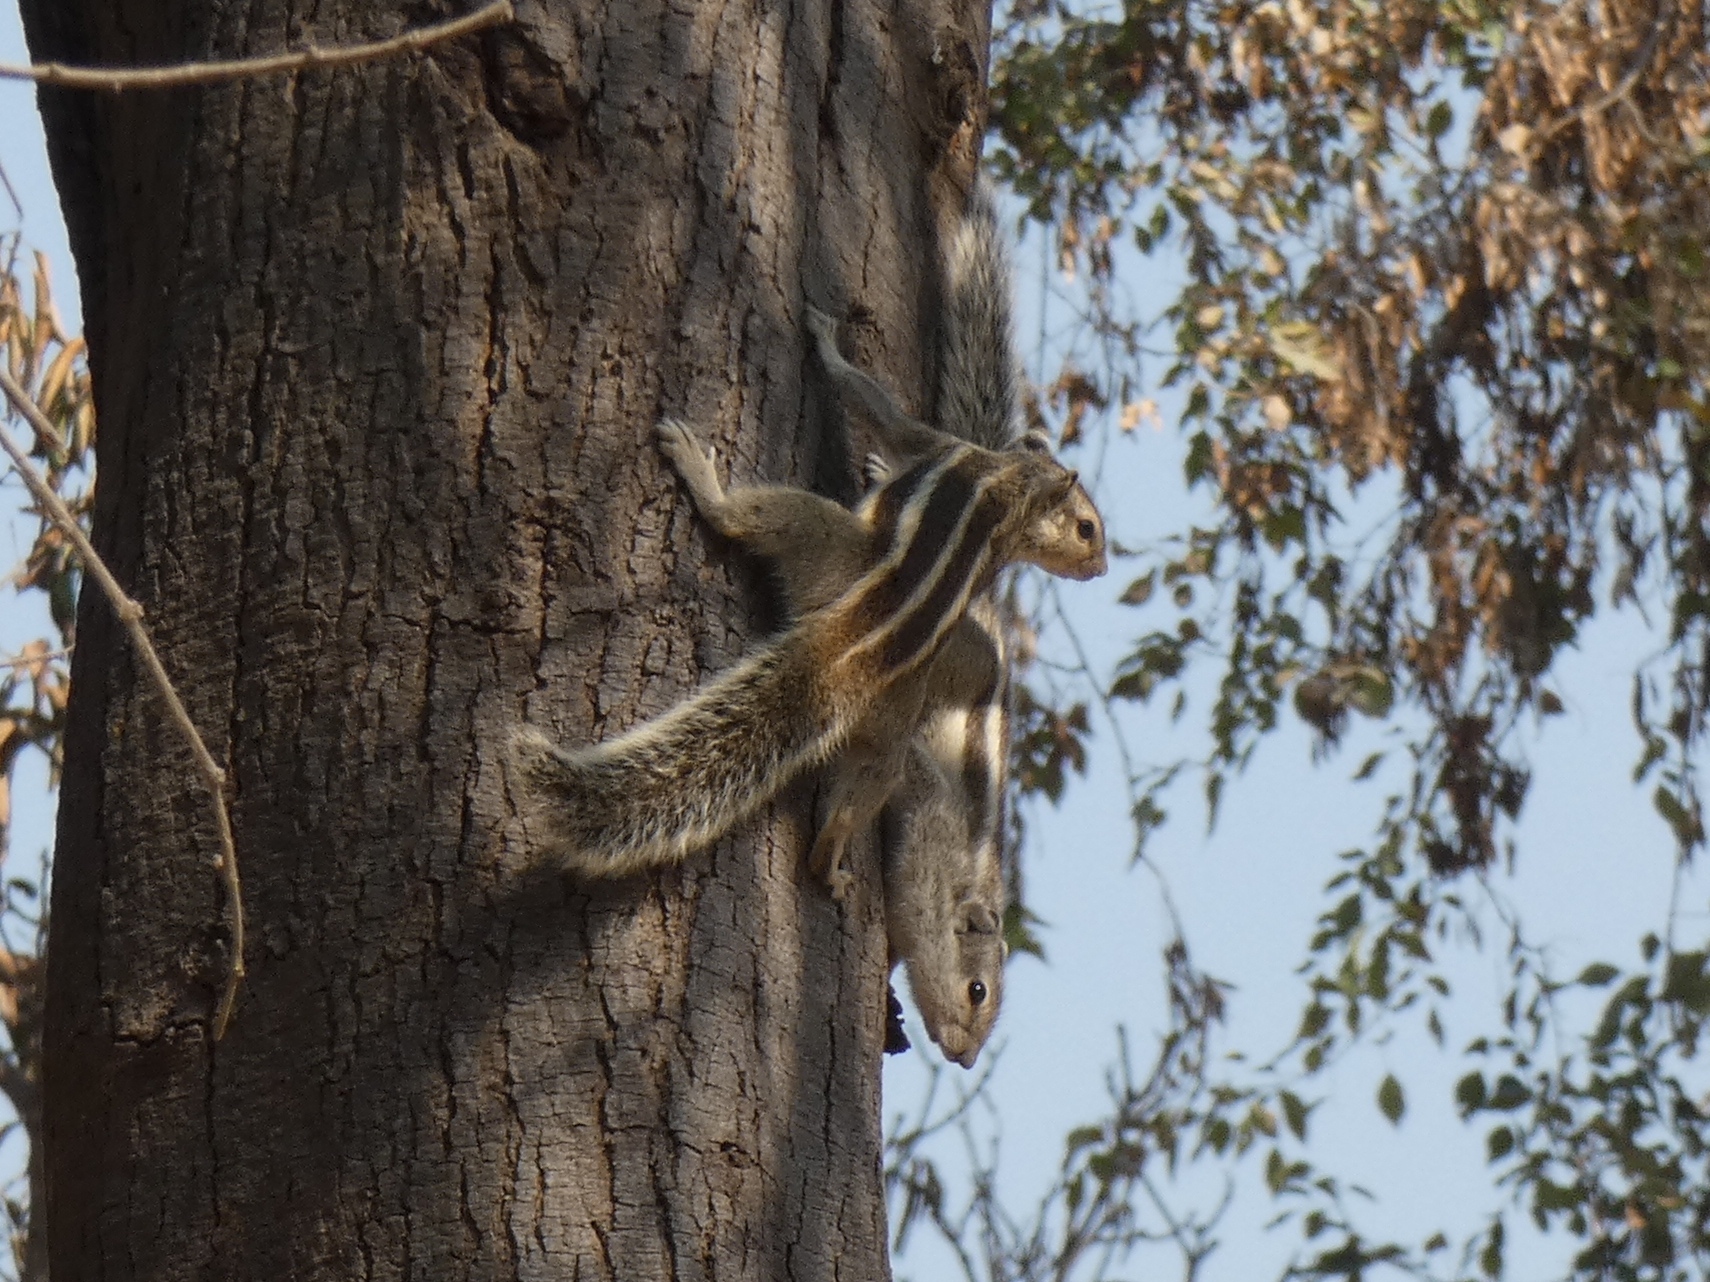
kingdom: Animalia
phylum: Chordata
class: Mammalia
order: Rodentia
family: Sciuridae
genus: Funambulus
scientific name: Funambulus pennantii
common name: Northern palm squirrel
